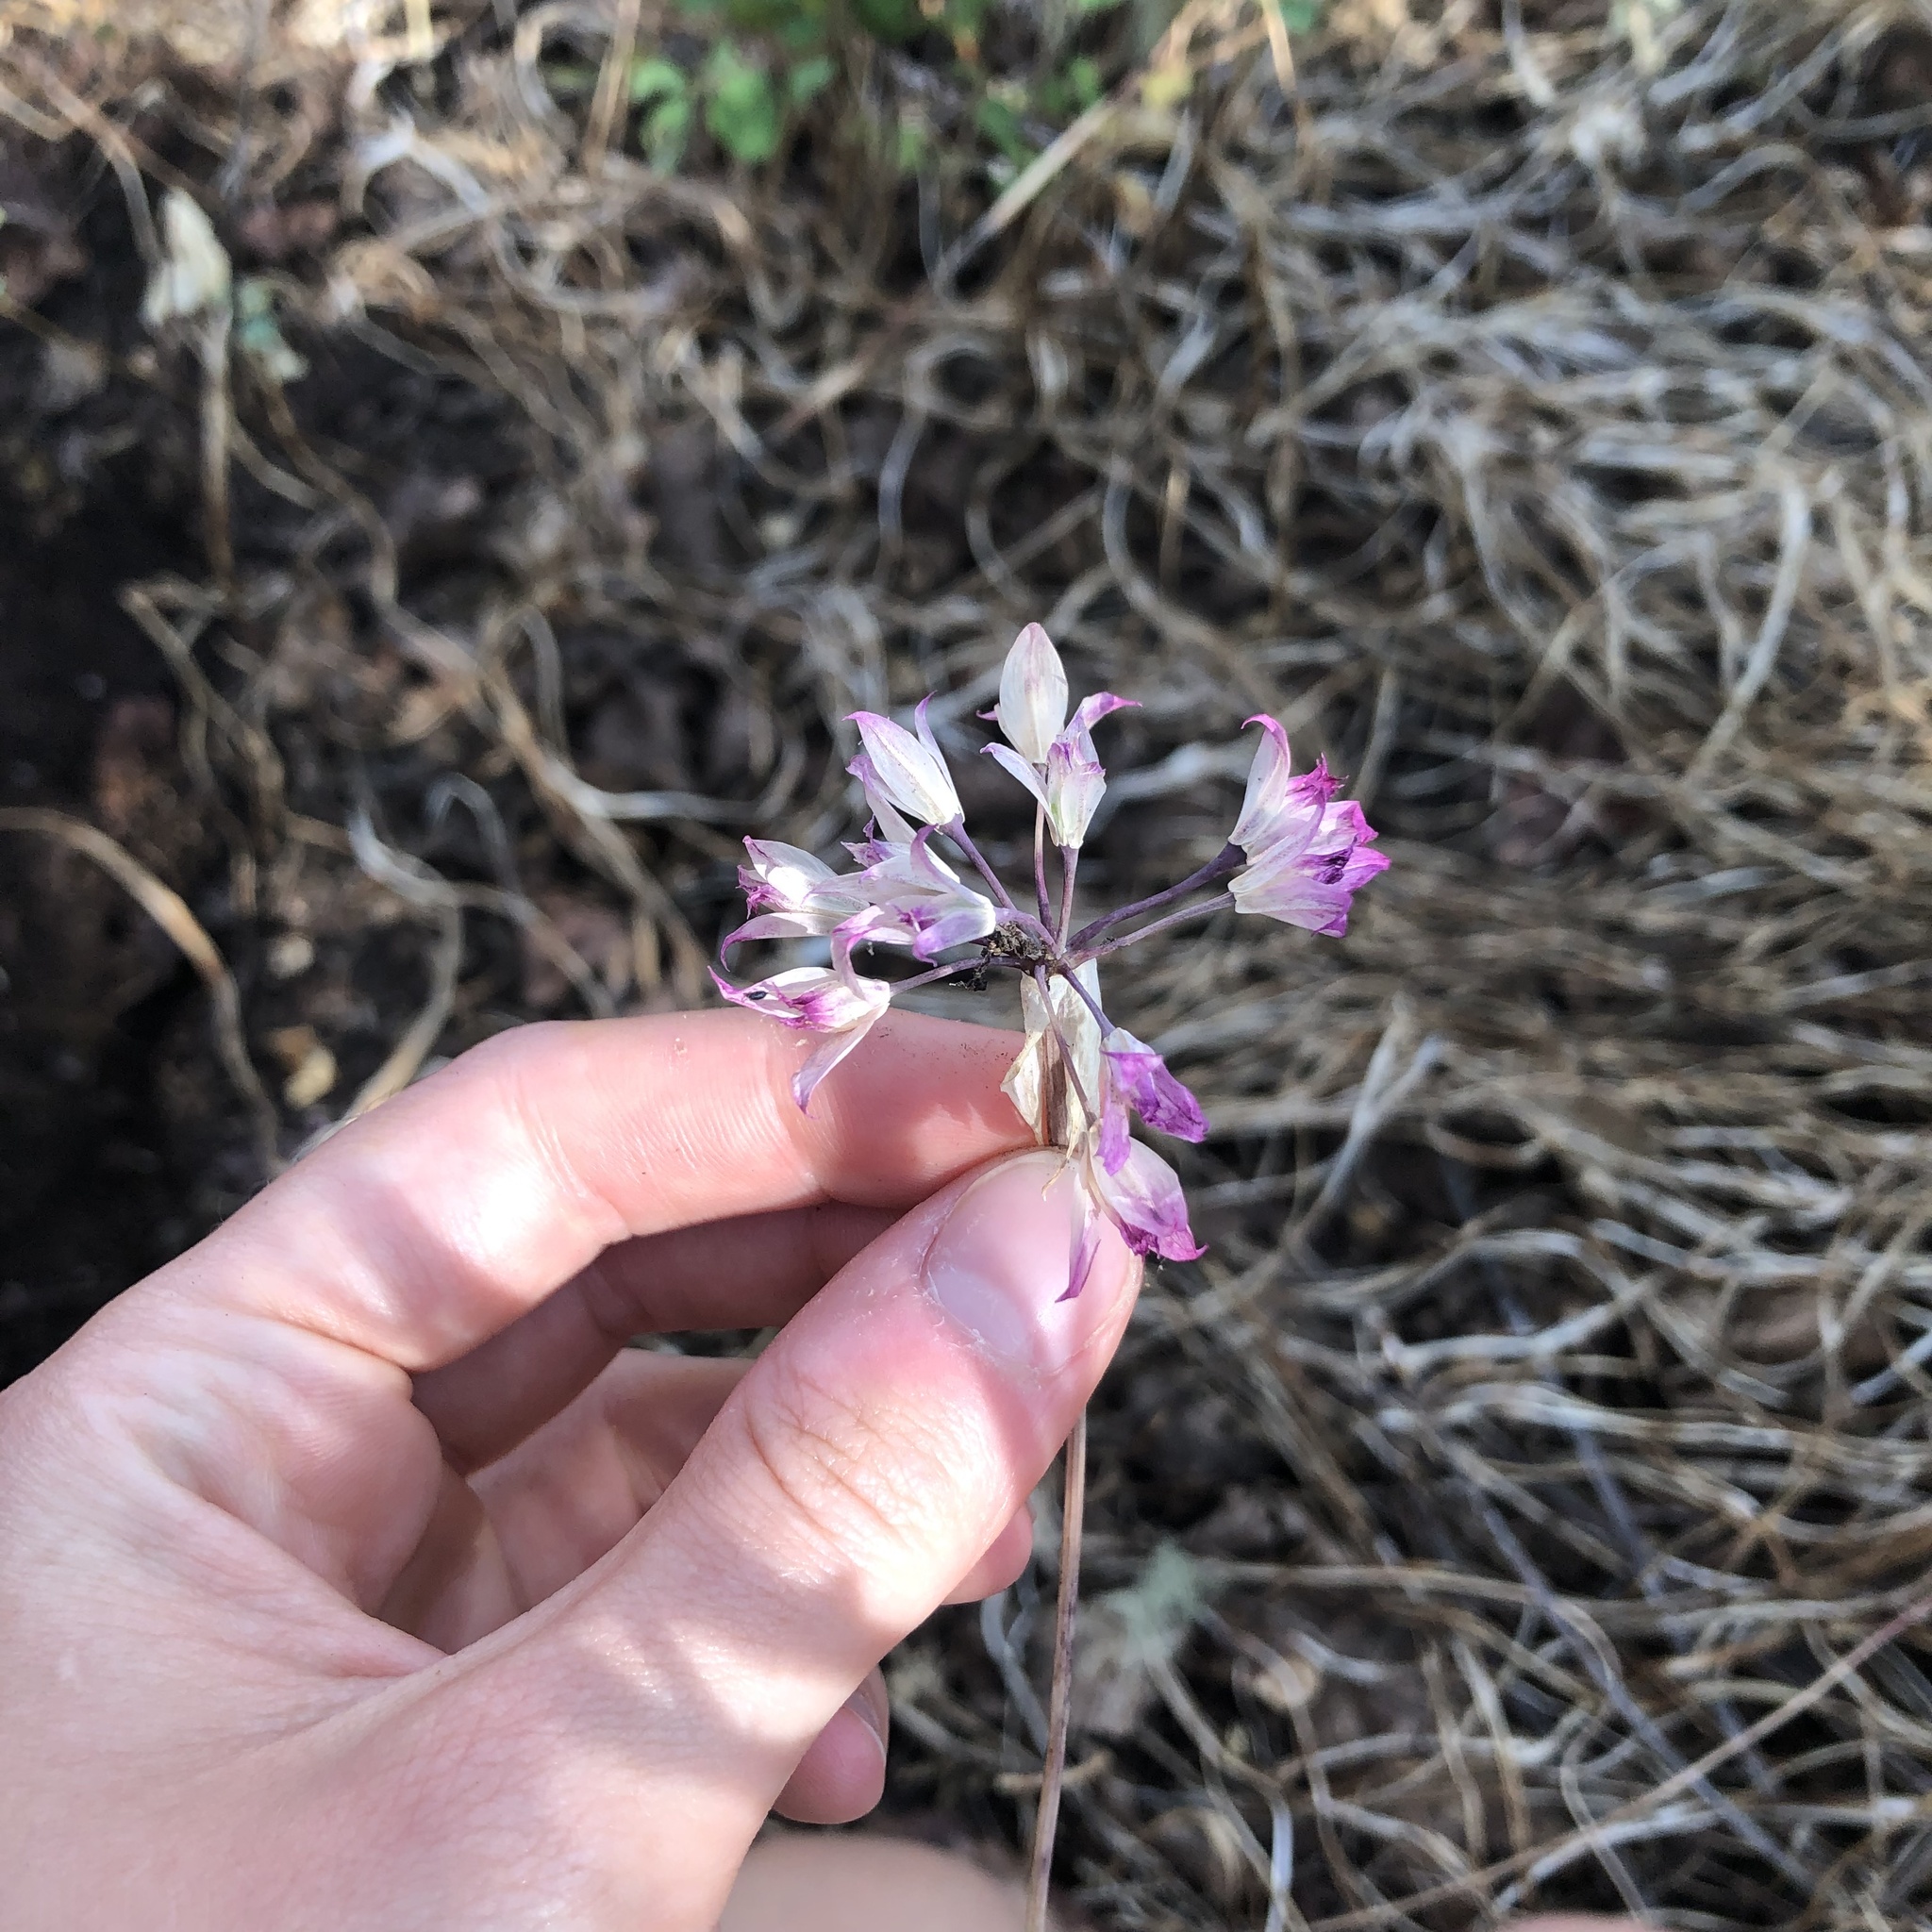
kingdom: Plantae
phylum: Tracheophyta
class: Liliopsida
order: Asparagales
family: Amaryllidaceae
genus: Allium
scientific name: Allium acuminatum
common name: Hooker's onion
